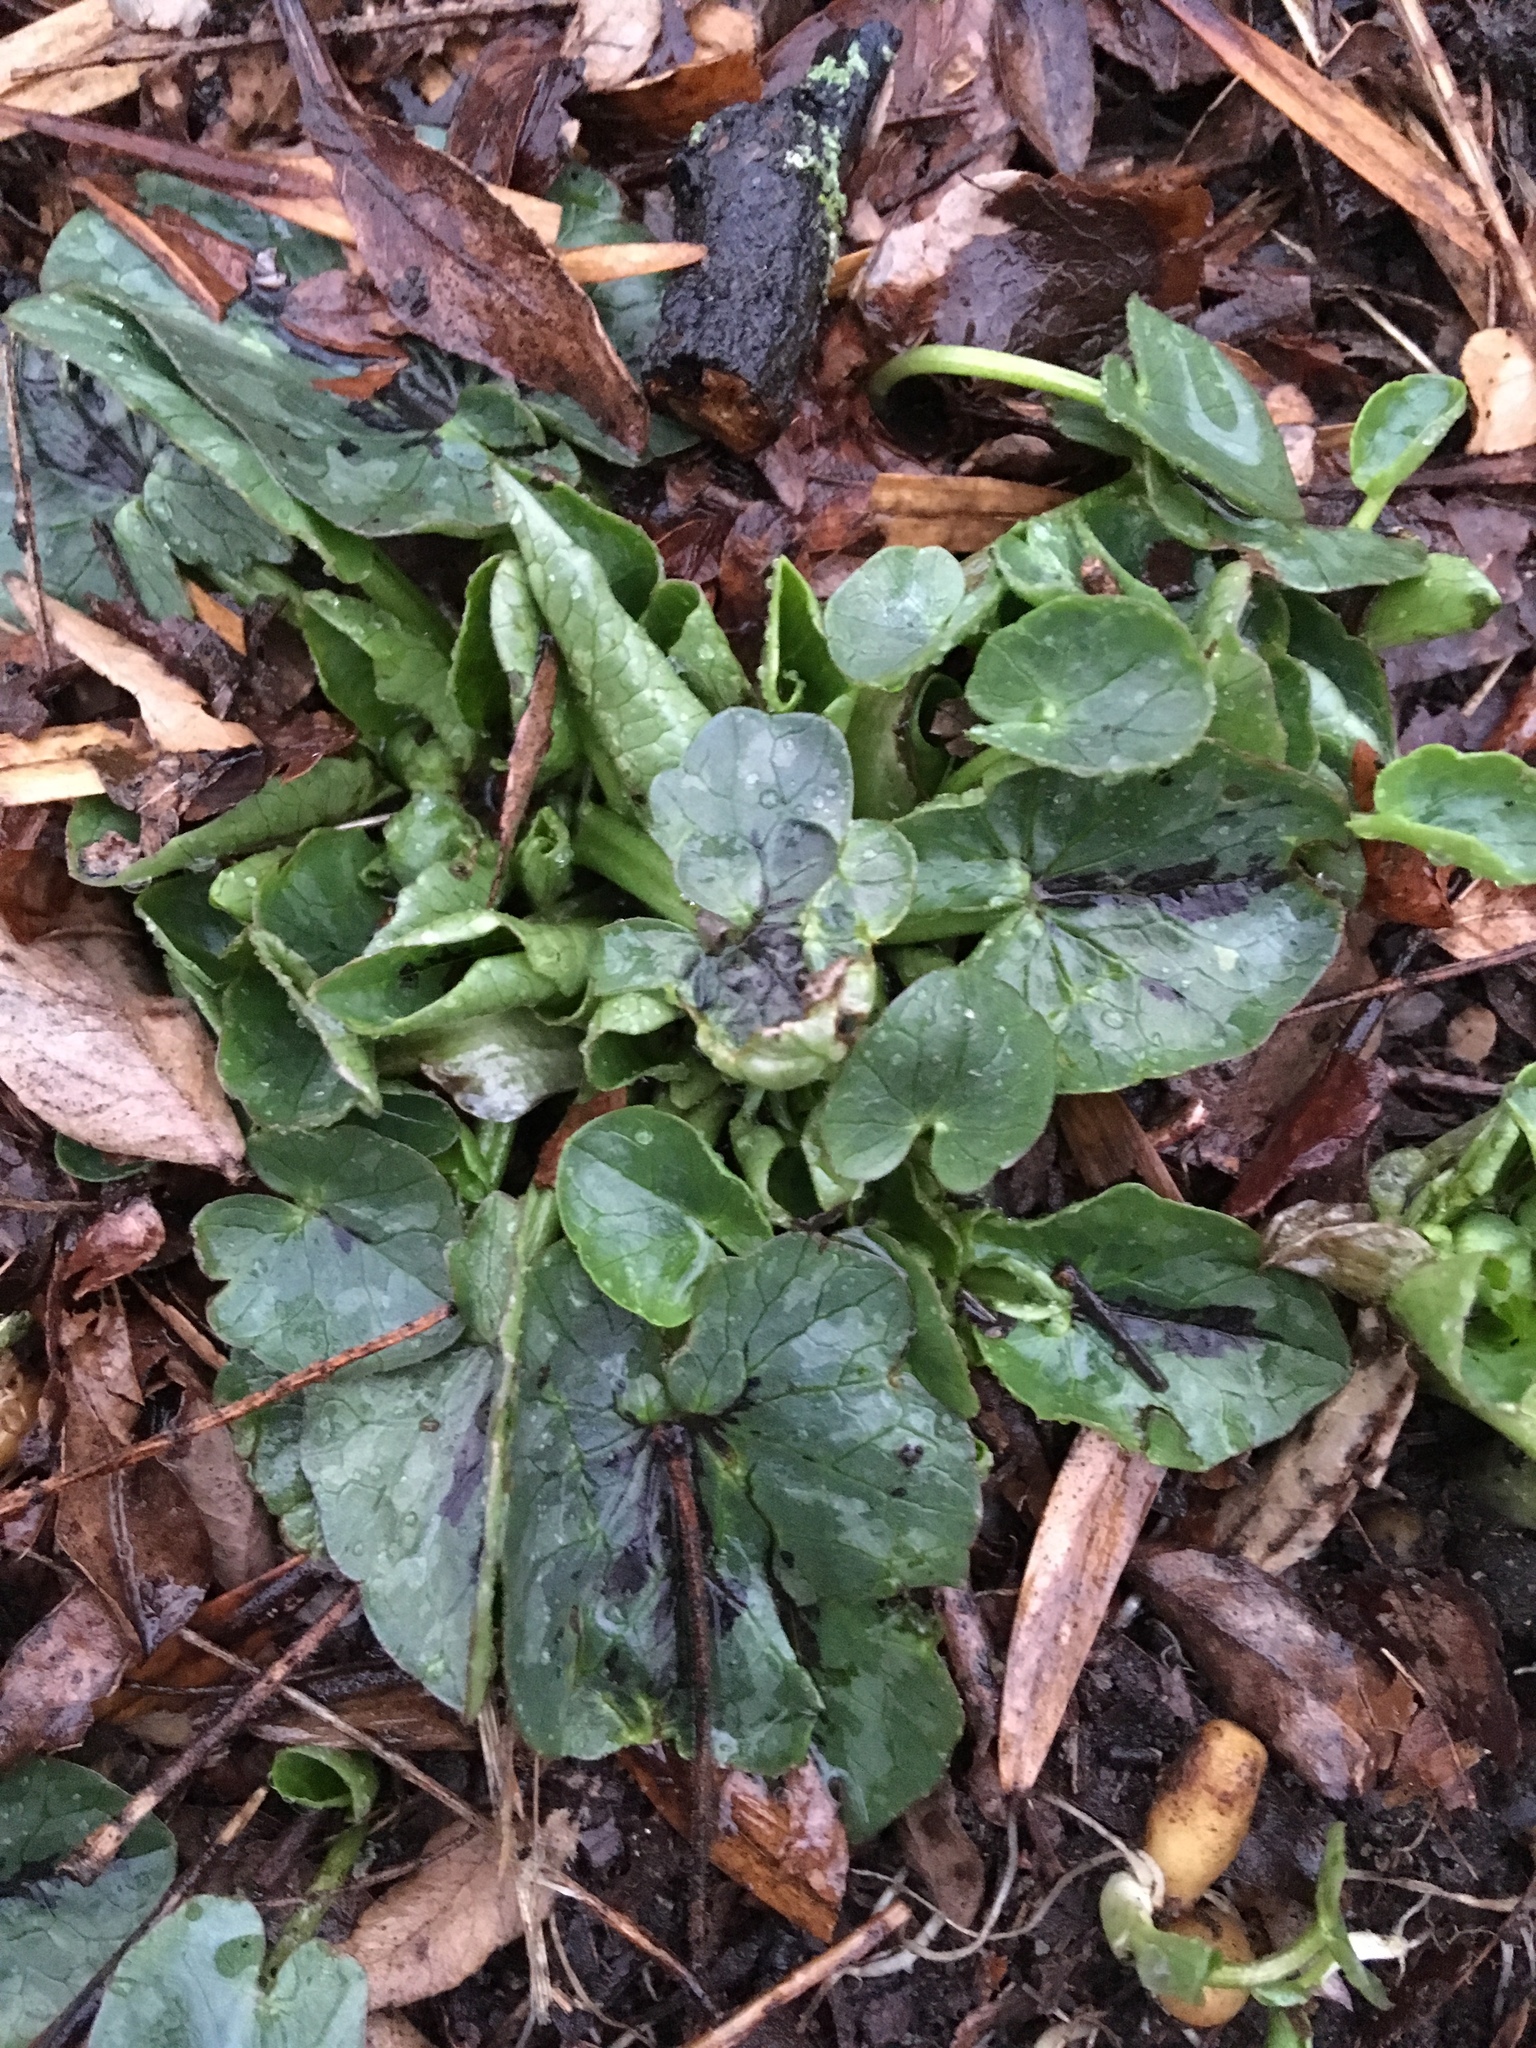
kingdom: Plantae
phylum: Tracheophyta
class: Magnoliopsida
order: Ranunculales
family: Ranunculaceae
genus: Ficaria
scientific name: Ficaria verna
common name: Lesser celandine
